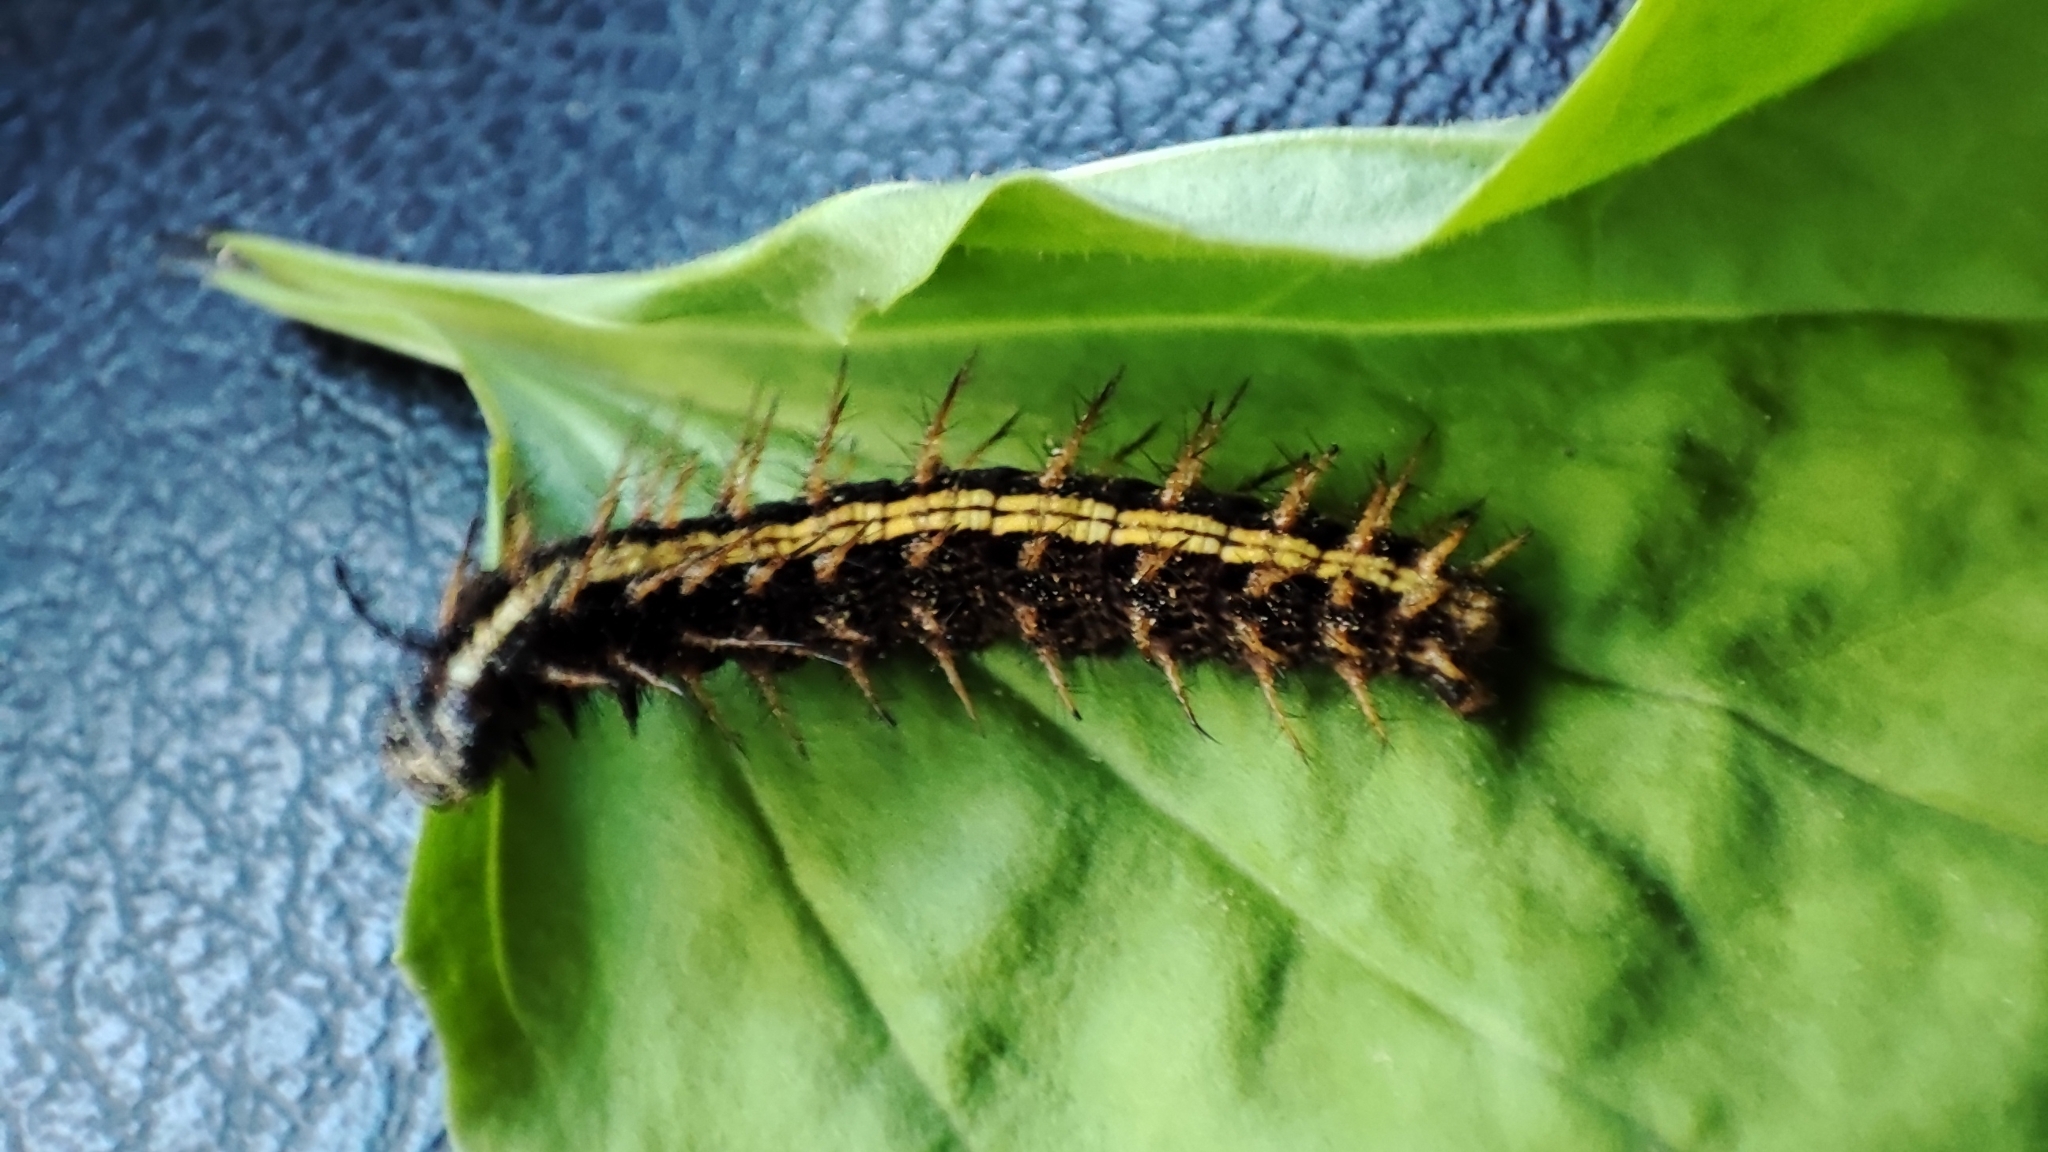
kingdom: Animalia
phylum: Arthropoda
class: Insecta
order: Lepidoptera
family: Nymphalidae
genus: Argynnis
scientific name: Argynnis paphia
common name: Silver-washed fritillary
